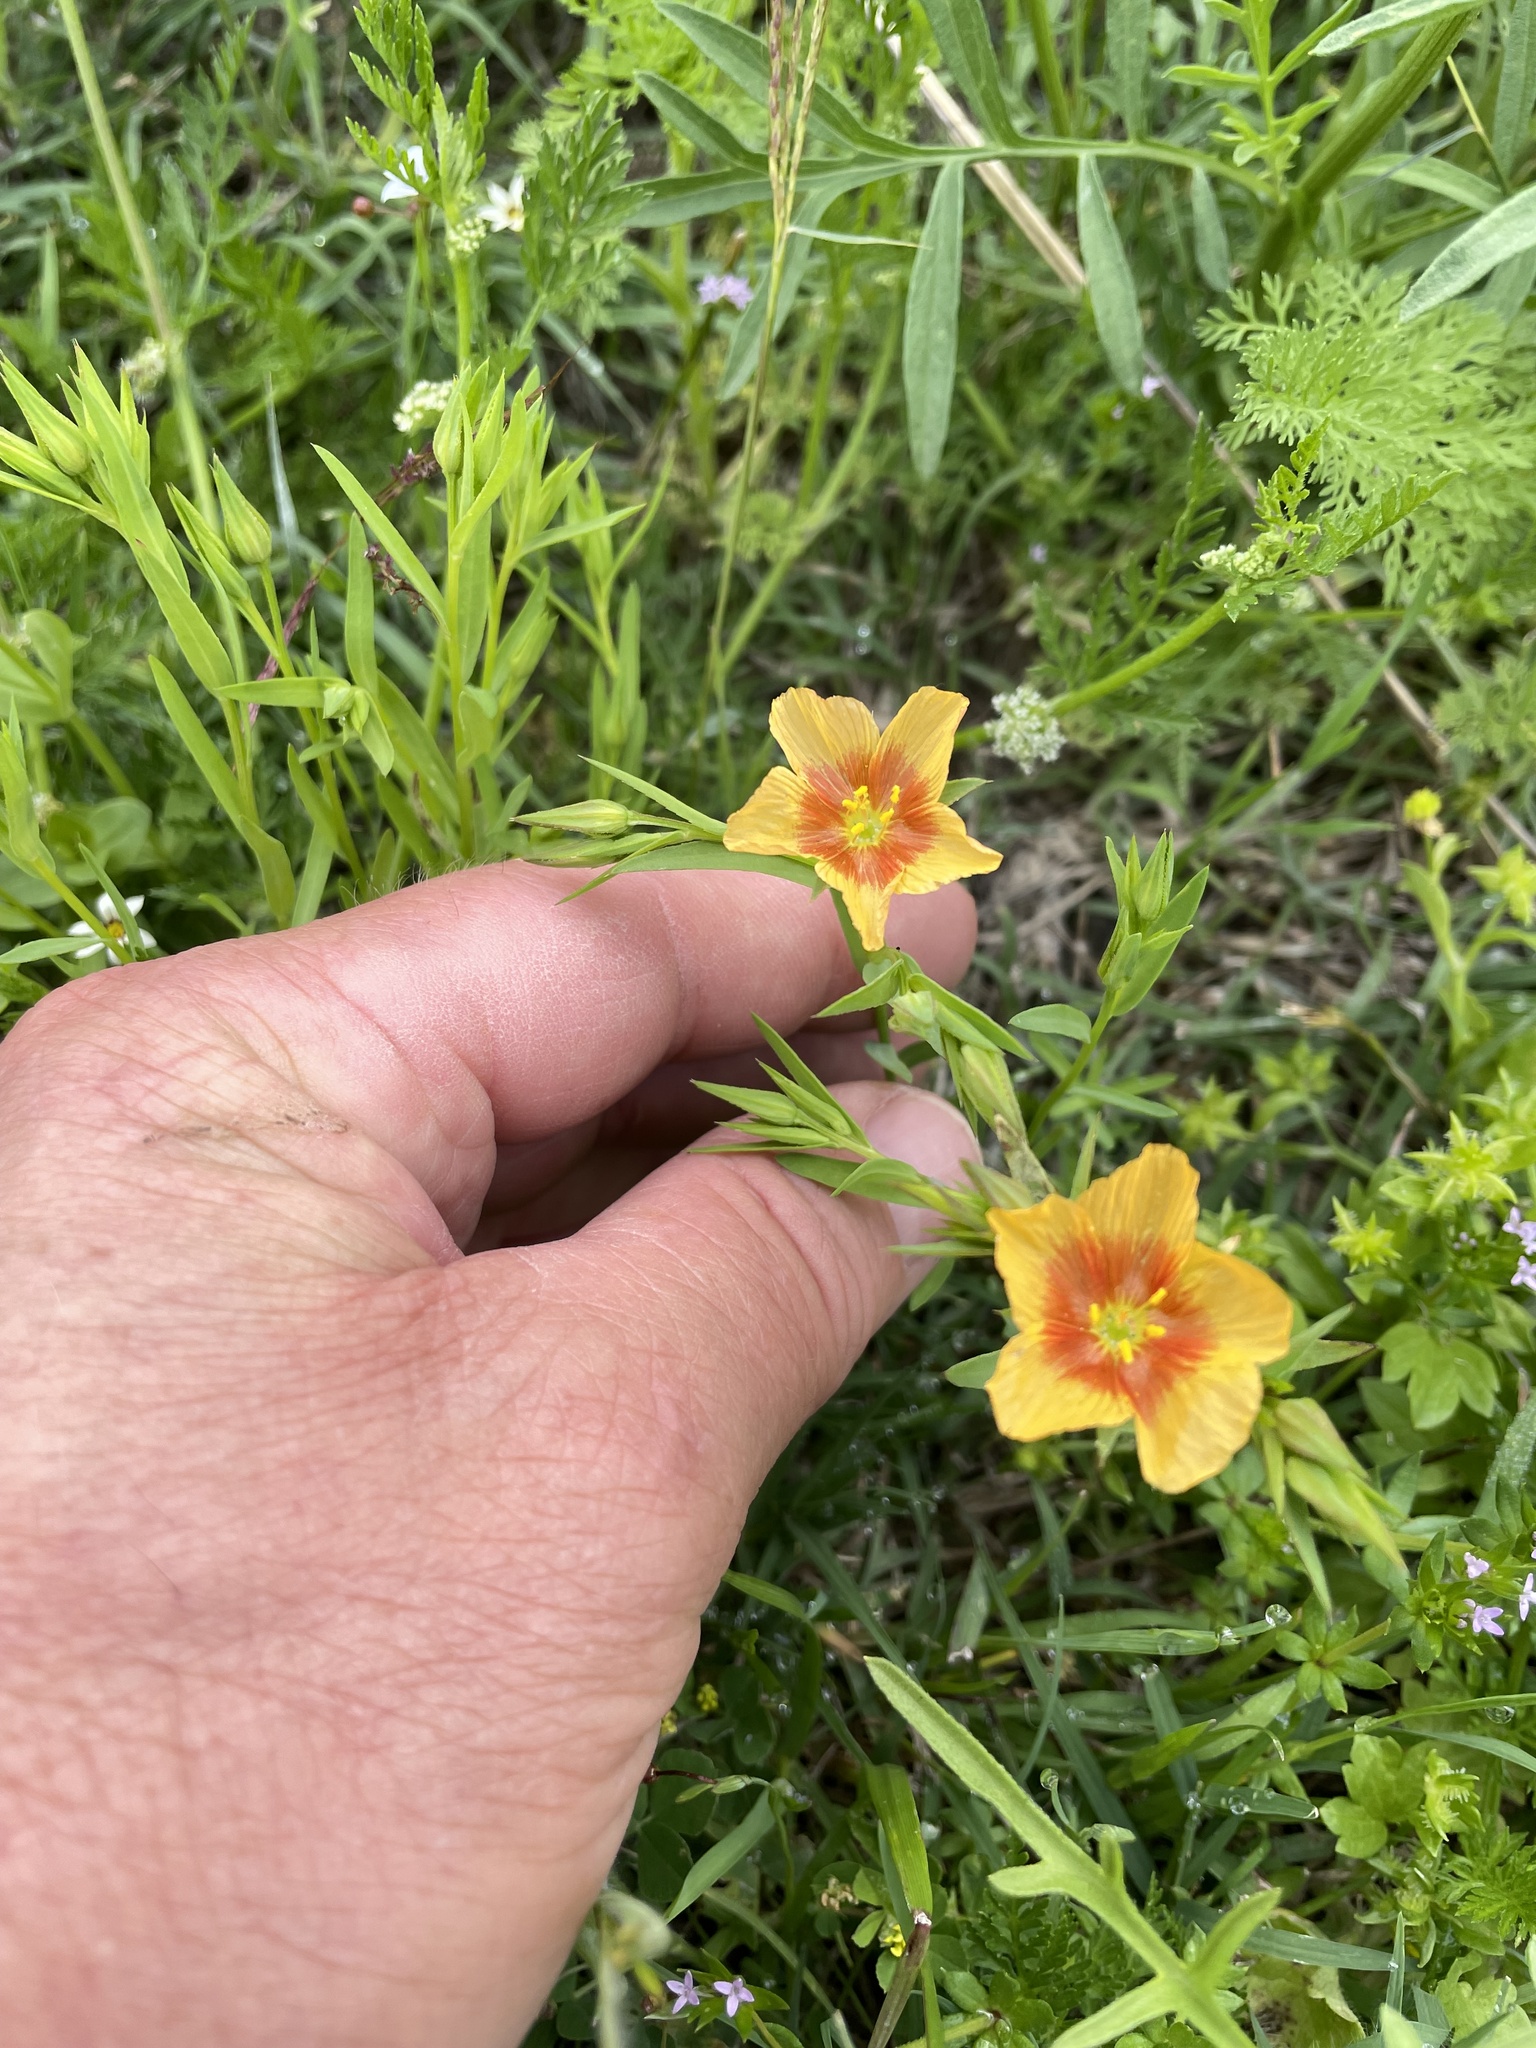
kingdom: Plantae
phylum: Tracheophyta
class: Magnoliopsida
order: Malpighiales
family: Linaceae
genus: Linum
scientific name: Linum berlandieri
